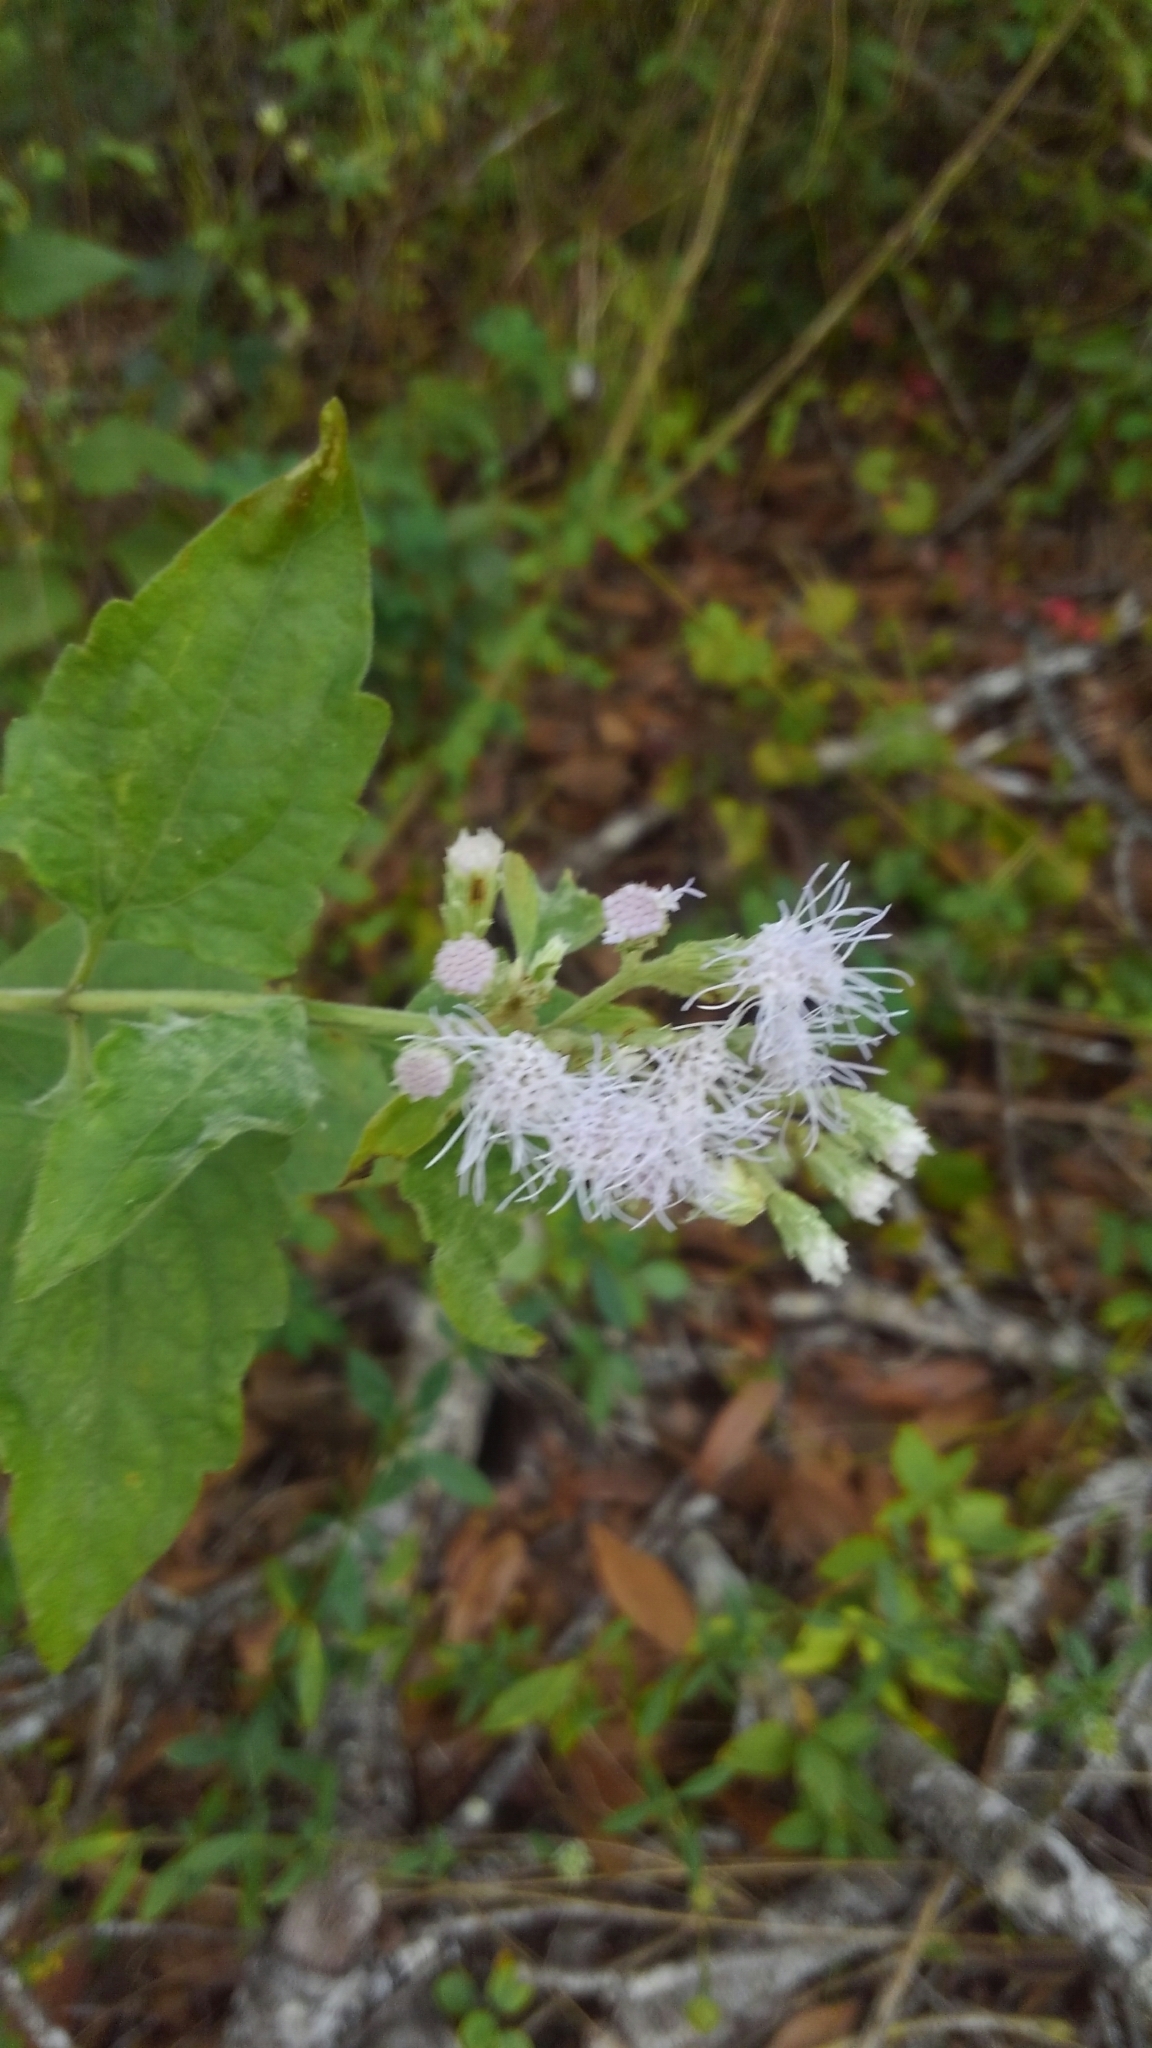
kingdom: Plantae
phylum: Tracheophyta
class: Magnoliopsida
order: Asterales
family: Asteraceae
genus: Chromolaena
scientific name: Chromolaena odorata
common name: Siamweed
